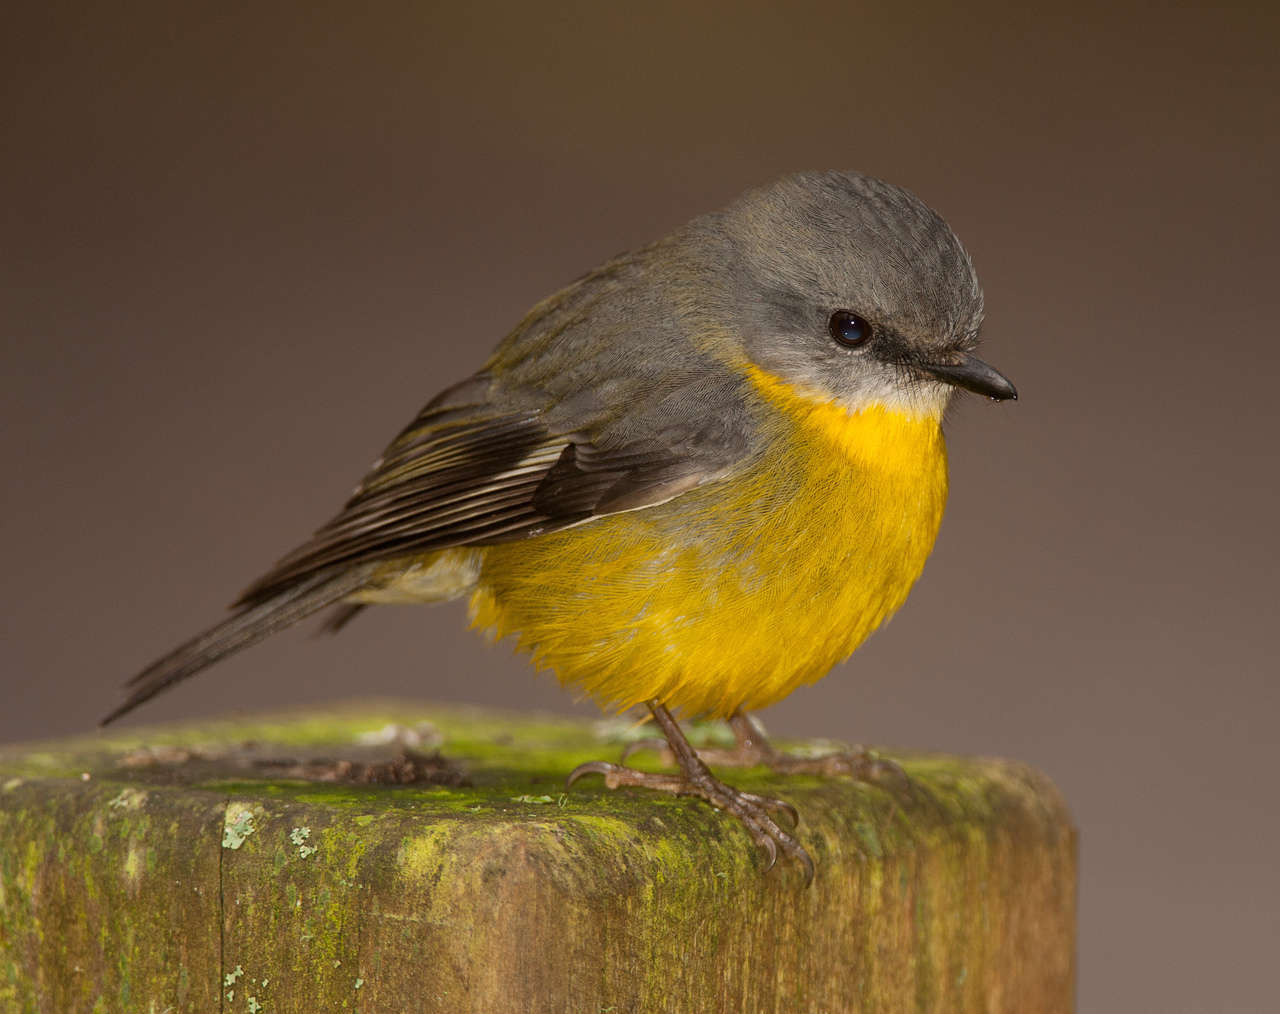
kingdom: Animalia
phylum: Chordata
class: Aves
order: Passeriformes
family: Petroicidae
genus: Eopsaltria
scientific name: Eopsaltria australis
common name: Eastern yellow robin
